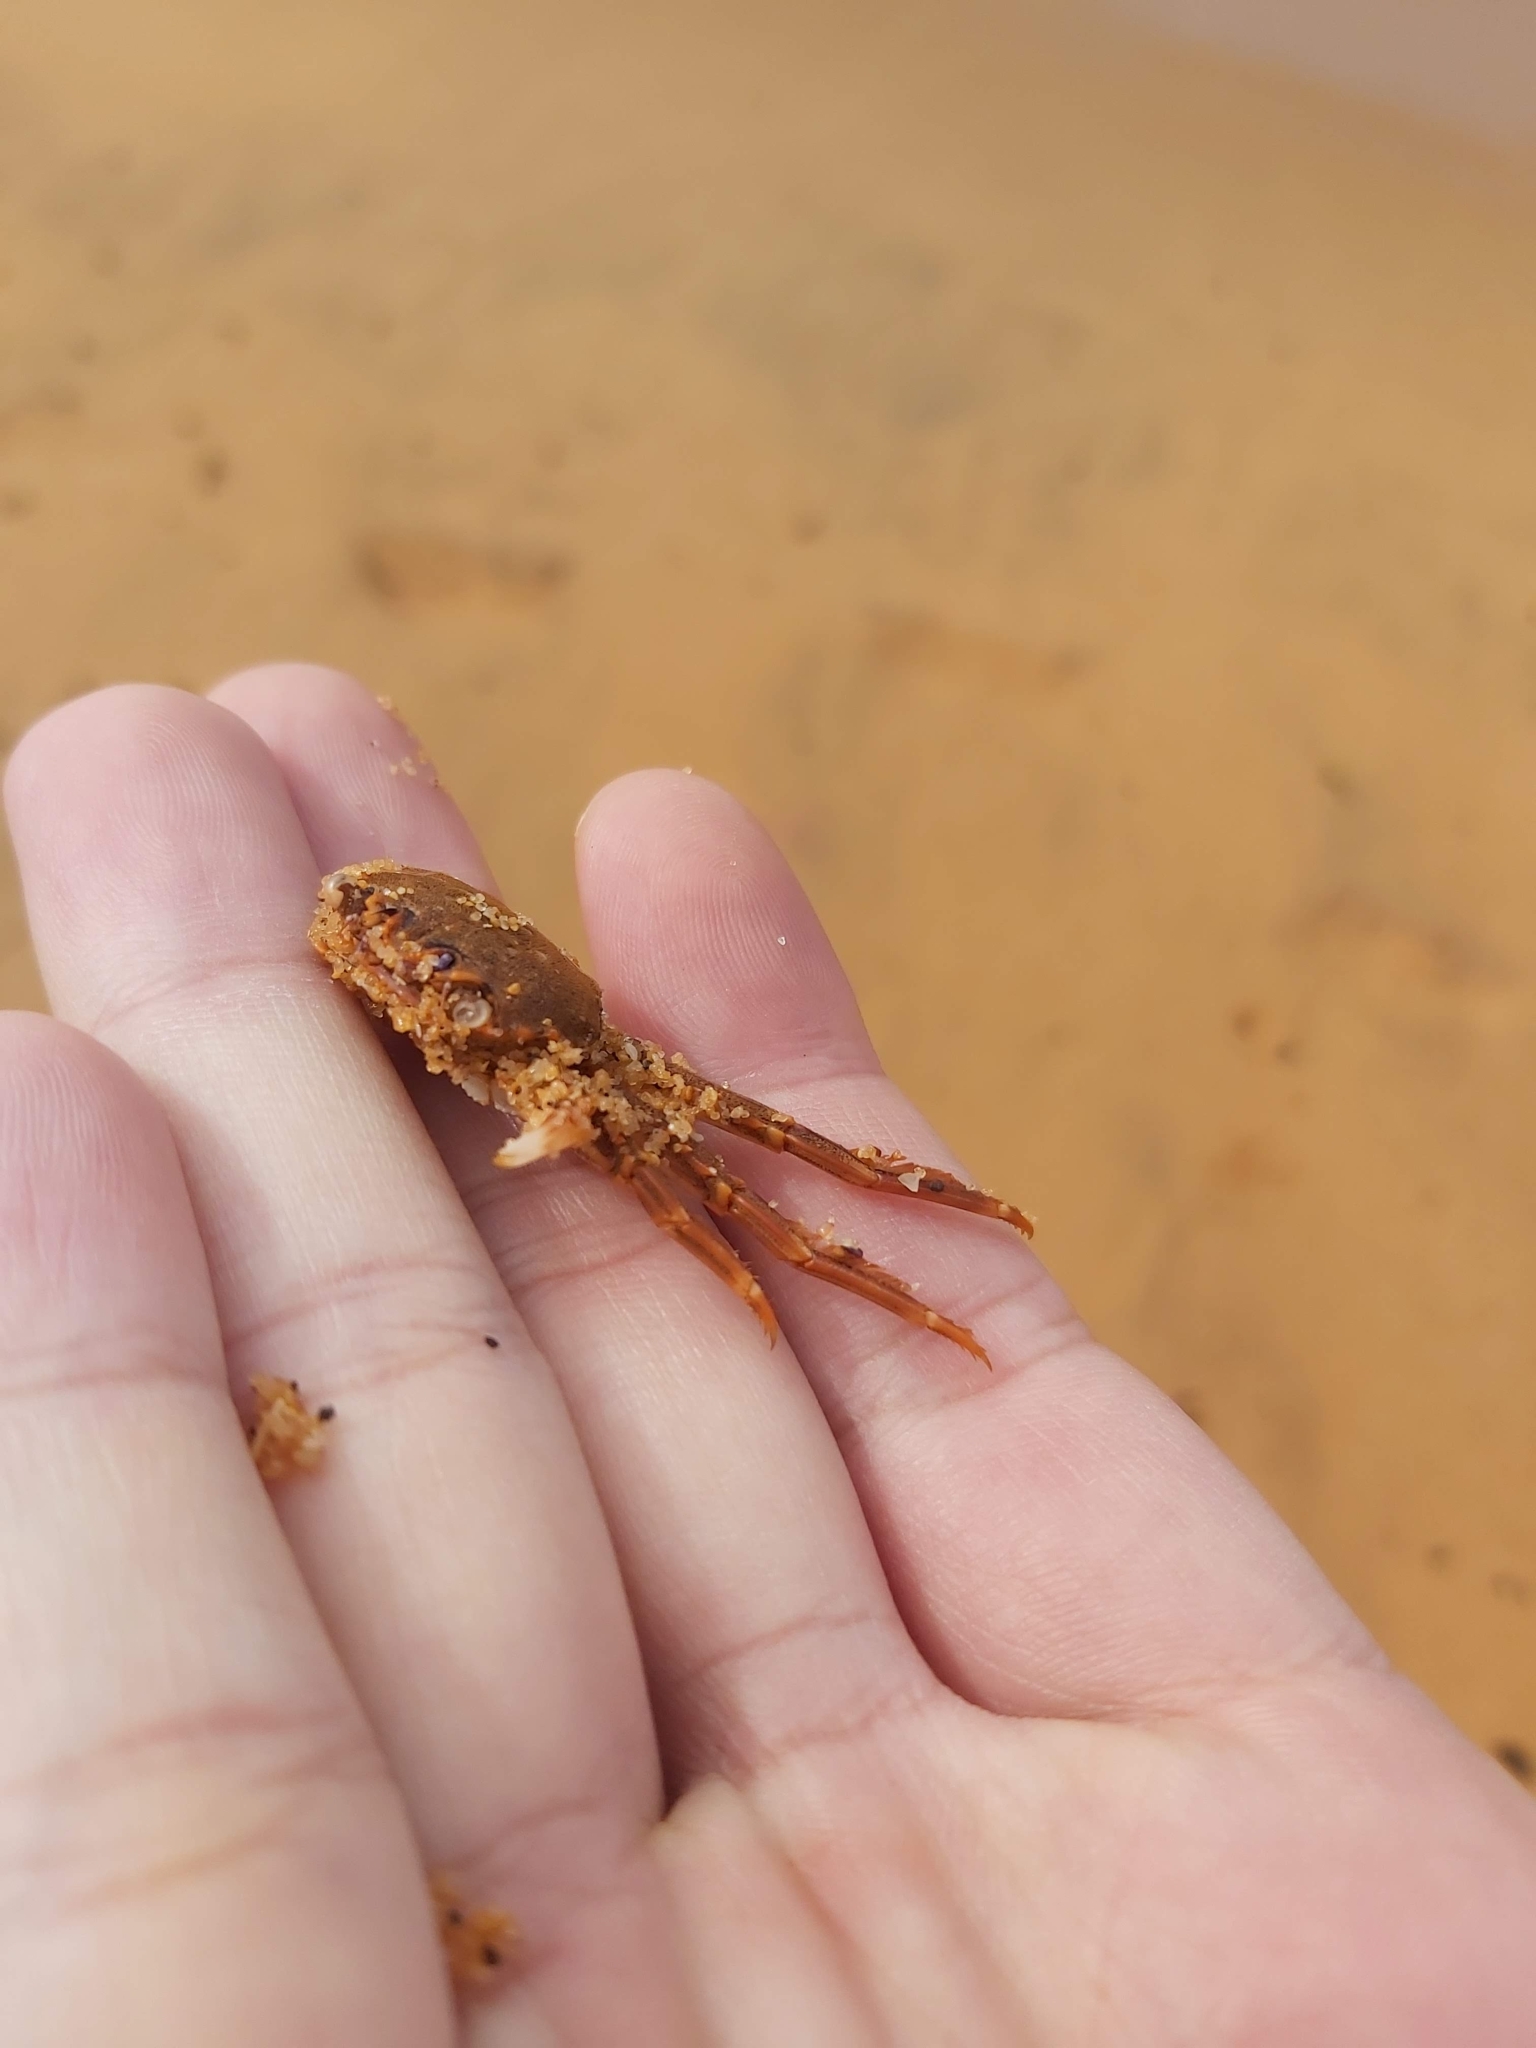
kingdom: Animalia
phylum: Arthropoda
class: Malacostraca
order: Decapoda
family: Plagusiidae
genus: Guinusia
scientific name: Guinusia chabrus
